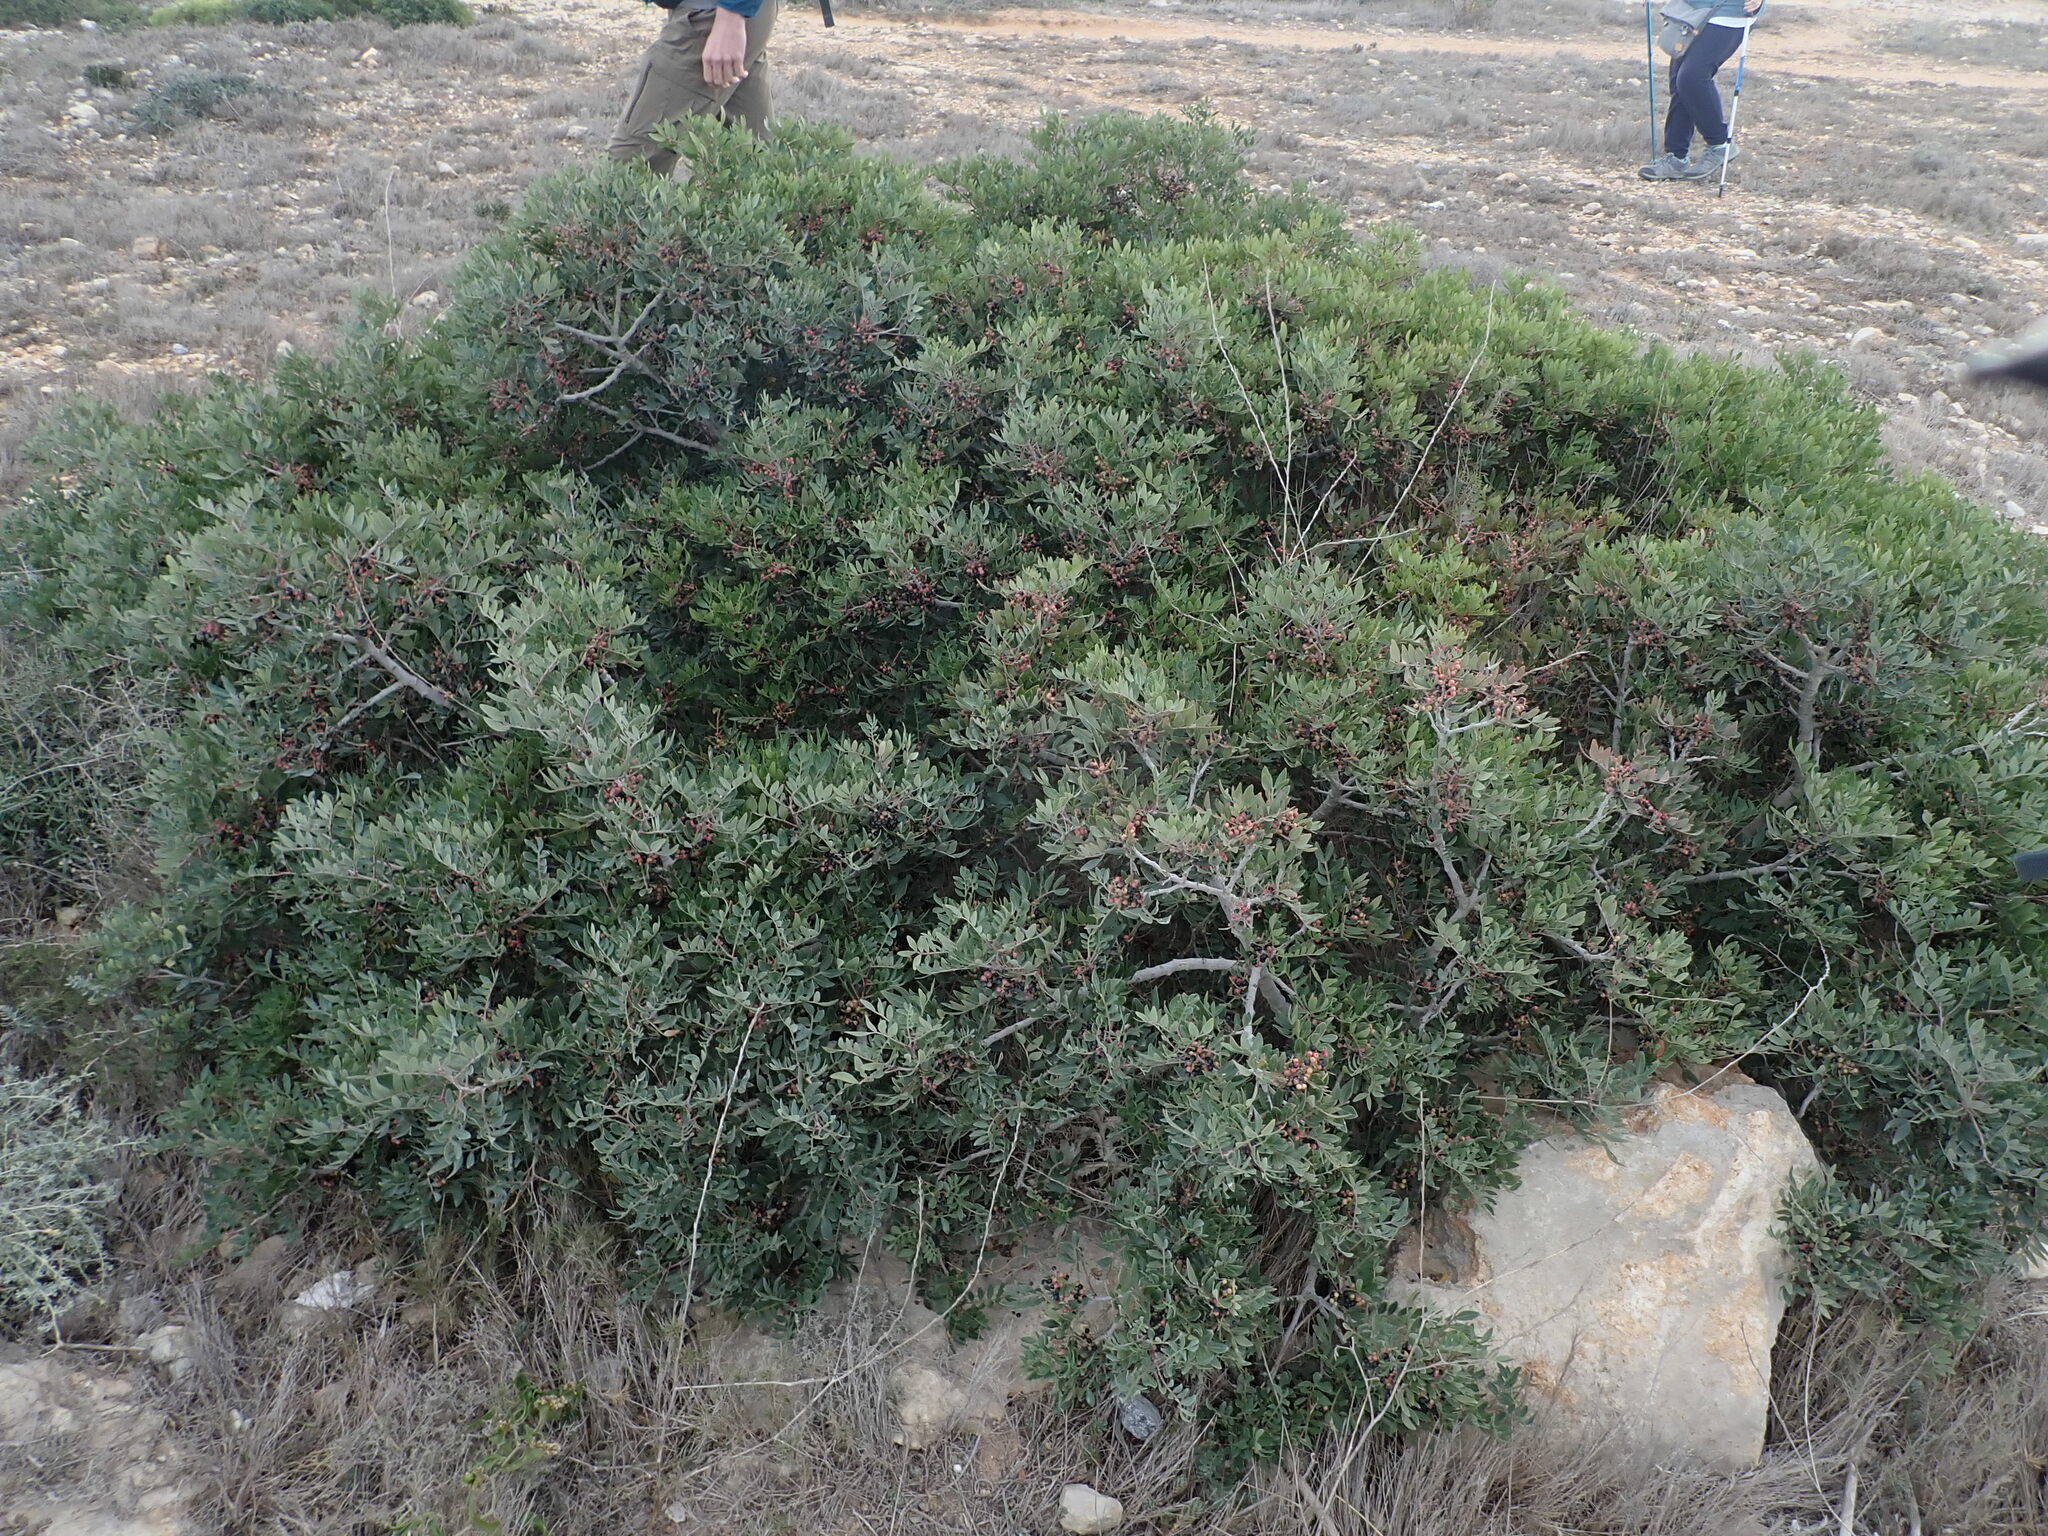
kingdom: Plantae
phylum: Tracheophyta
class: Magnoliopsida
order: Sapindales
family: Anacardiaceae
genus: Pistacia
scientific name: Pistacia lentiscus
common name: Lentisk
